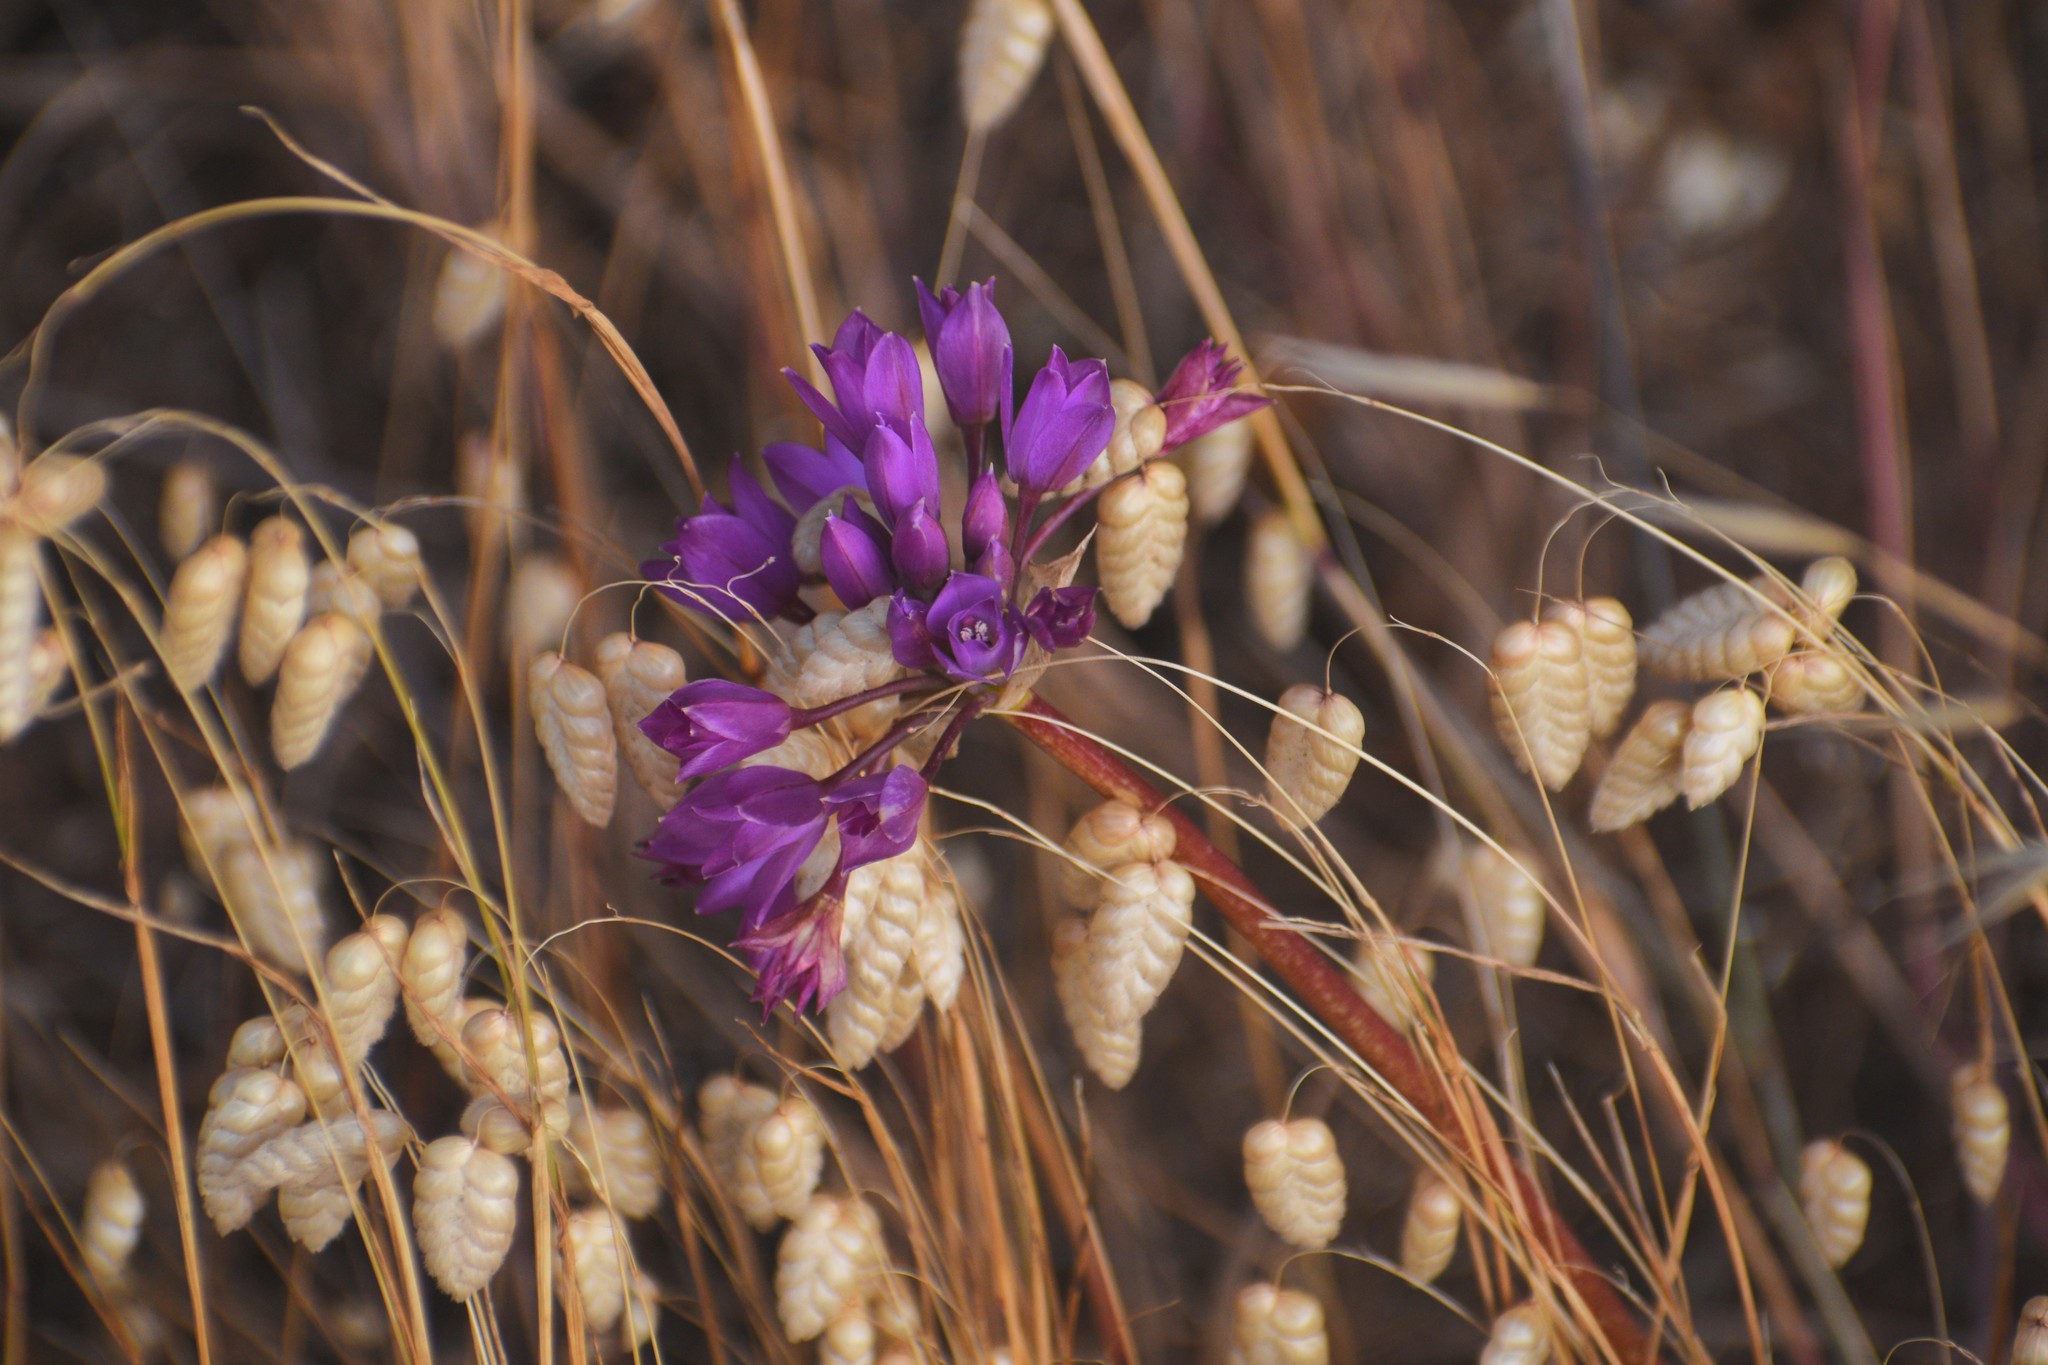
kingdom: Plantae
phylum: Tracheophyta
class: Liliopsida
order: Asparagales
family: Amaryllidaceae
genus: Allium
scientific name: Allium dichlamydeum
